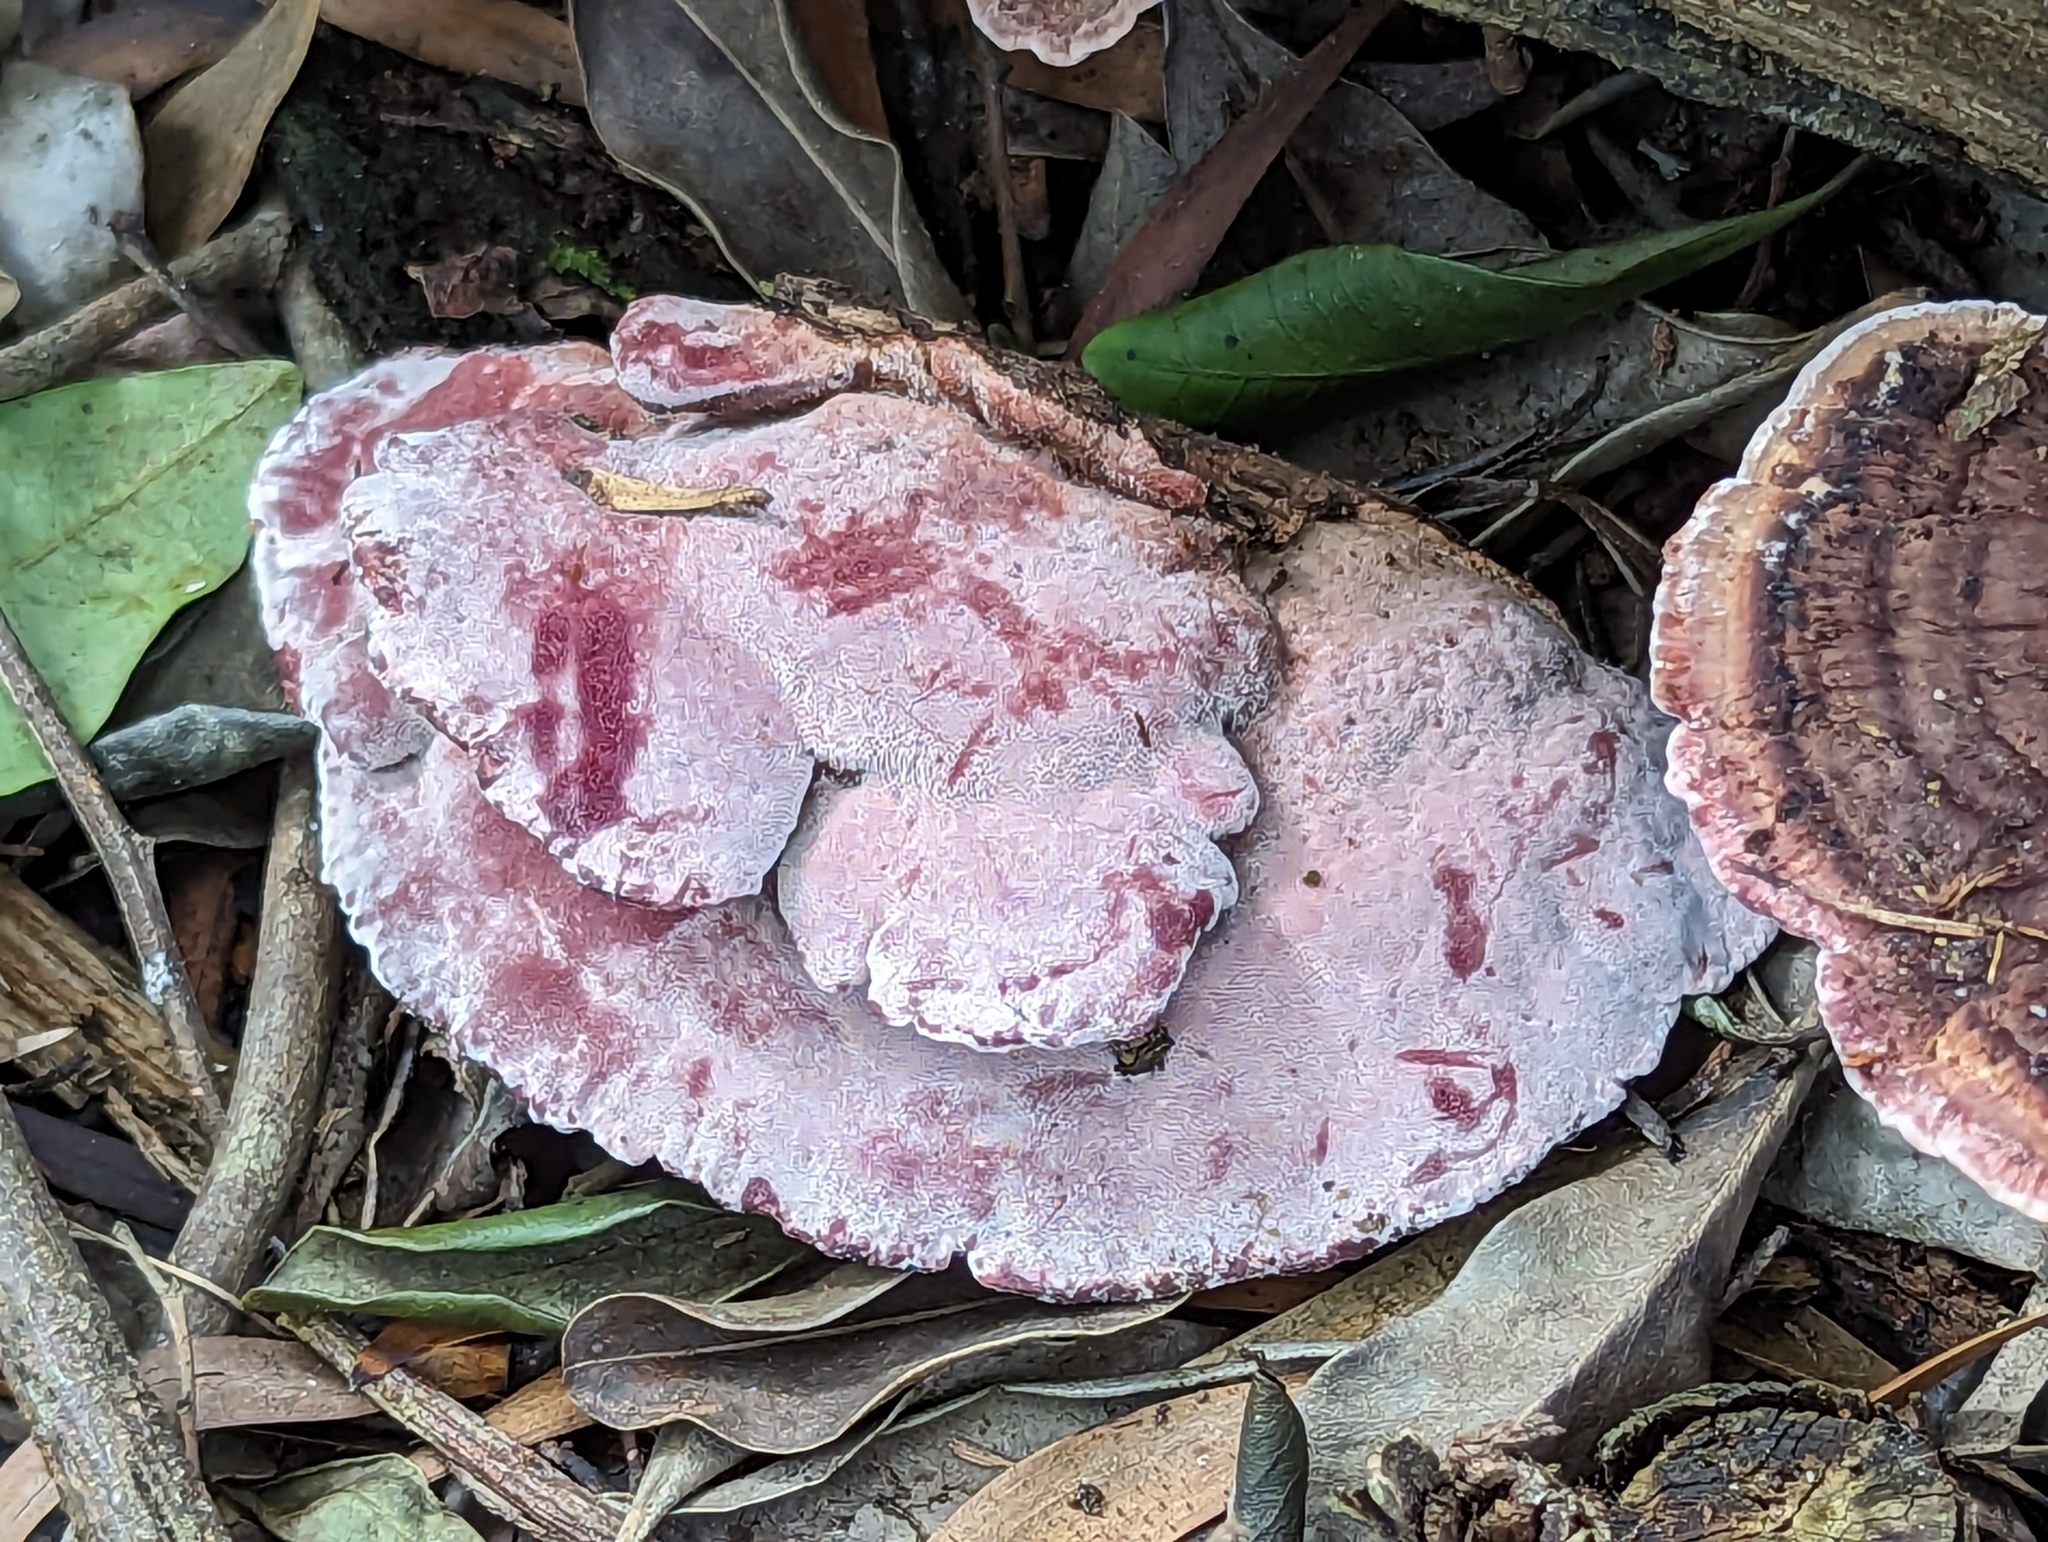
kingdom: Fungi
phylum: Basidiomycota
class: Agaricomycetes
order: Polyporales
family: Fomitopsidaceae
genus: Rhodofomitopsis
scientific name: Rhodofomitopsis lilacinogilva
